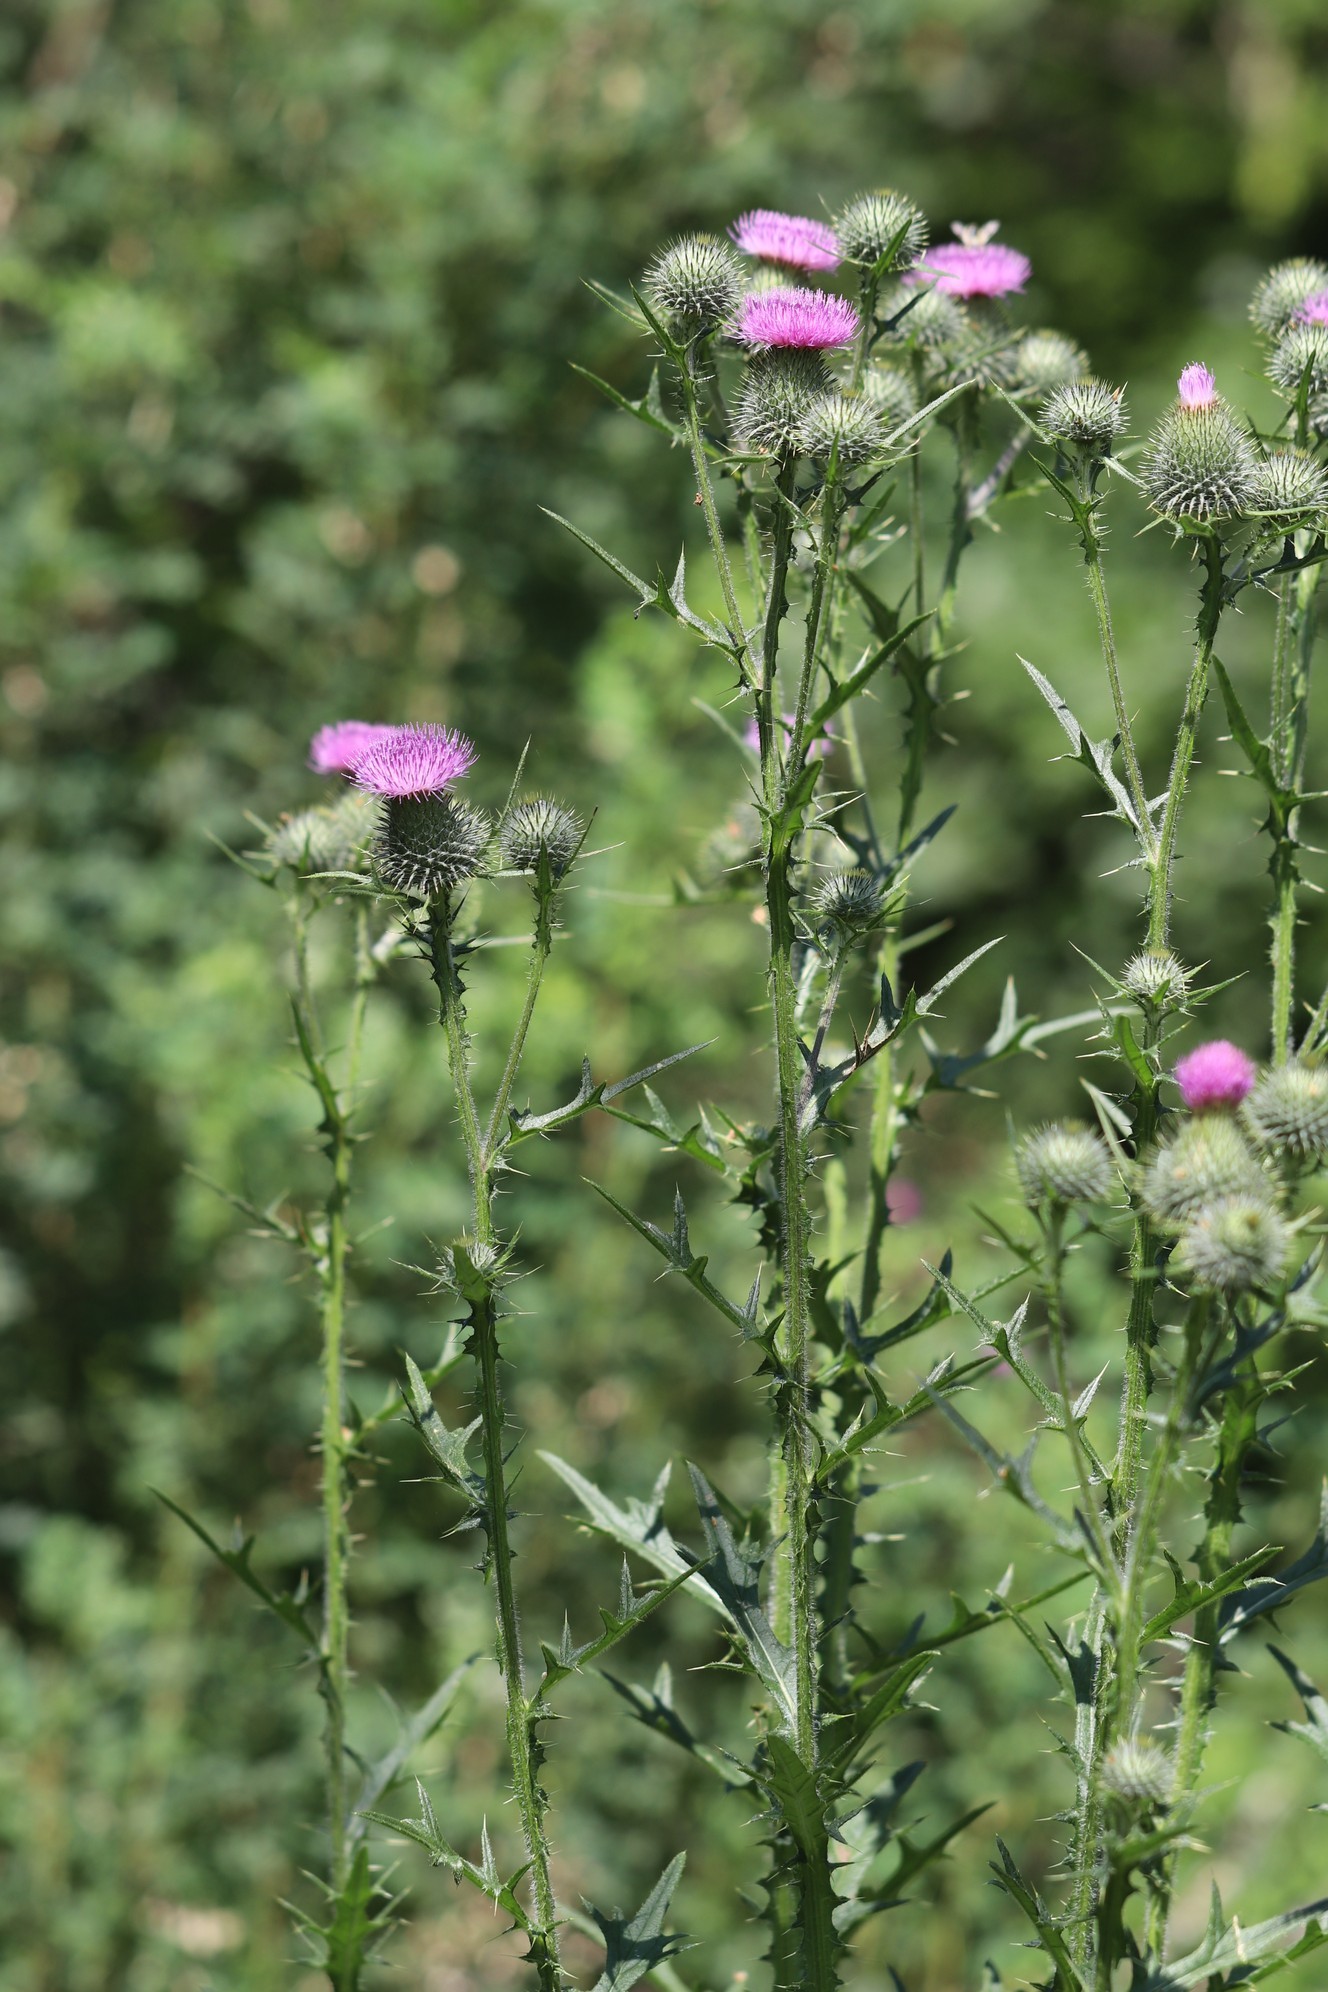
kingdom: Plantae
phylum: Tracheophyta
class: Magnoliopsida
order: Asterales
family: Asteraceae
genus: Cirsium
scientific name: Cirsium vulgare
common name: Bull thistle
